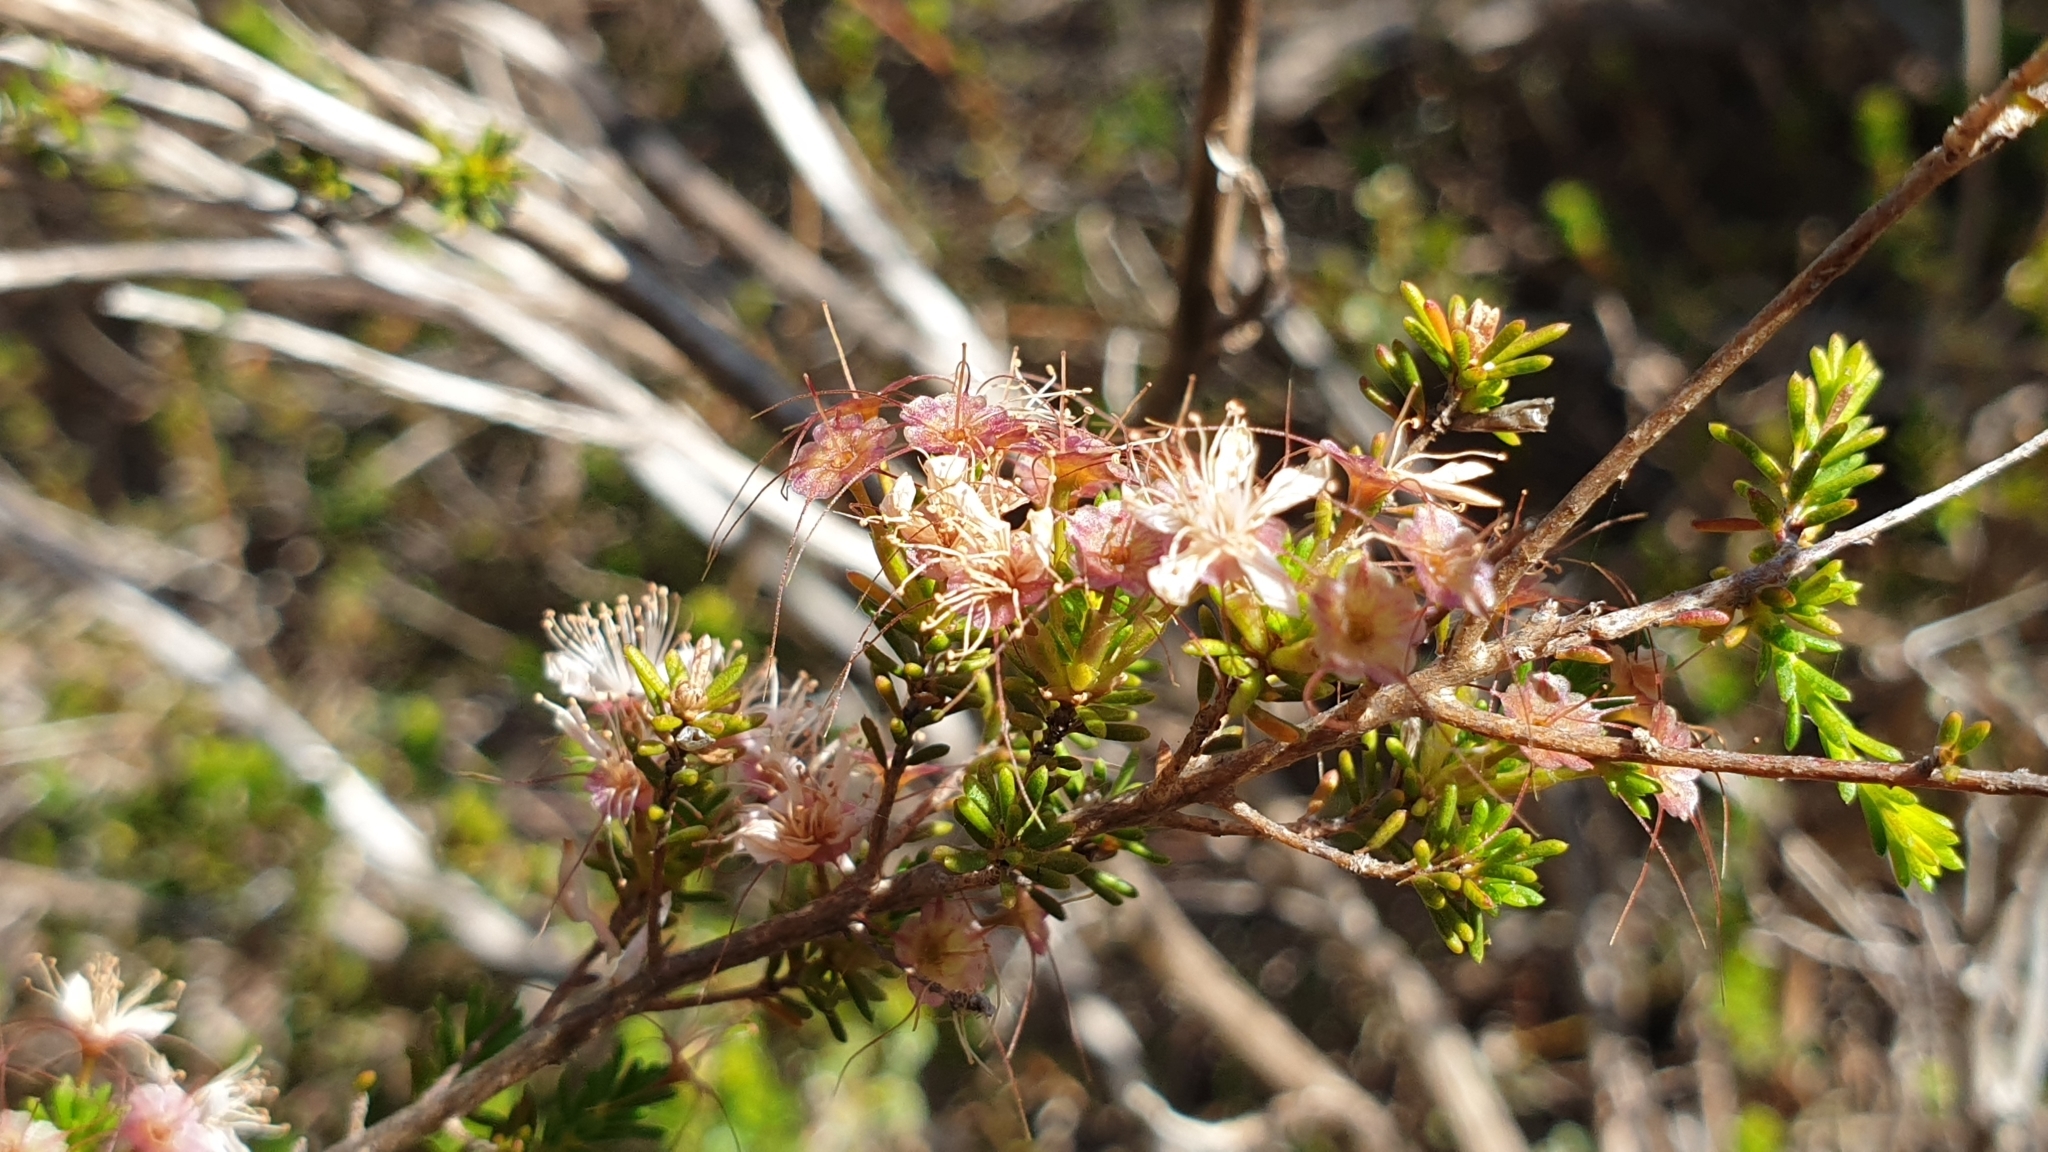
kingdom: Plantae
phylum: Tracheophyta
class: Magnoliopsida
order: Myrtales
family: Myrtaceae
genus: Calytrix
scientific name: Calytrix tetragona
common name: Common fringe myrtle
